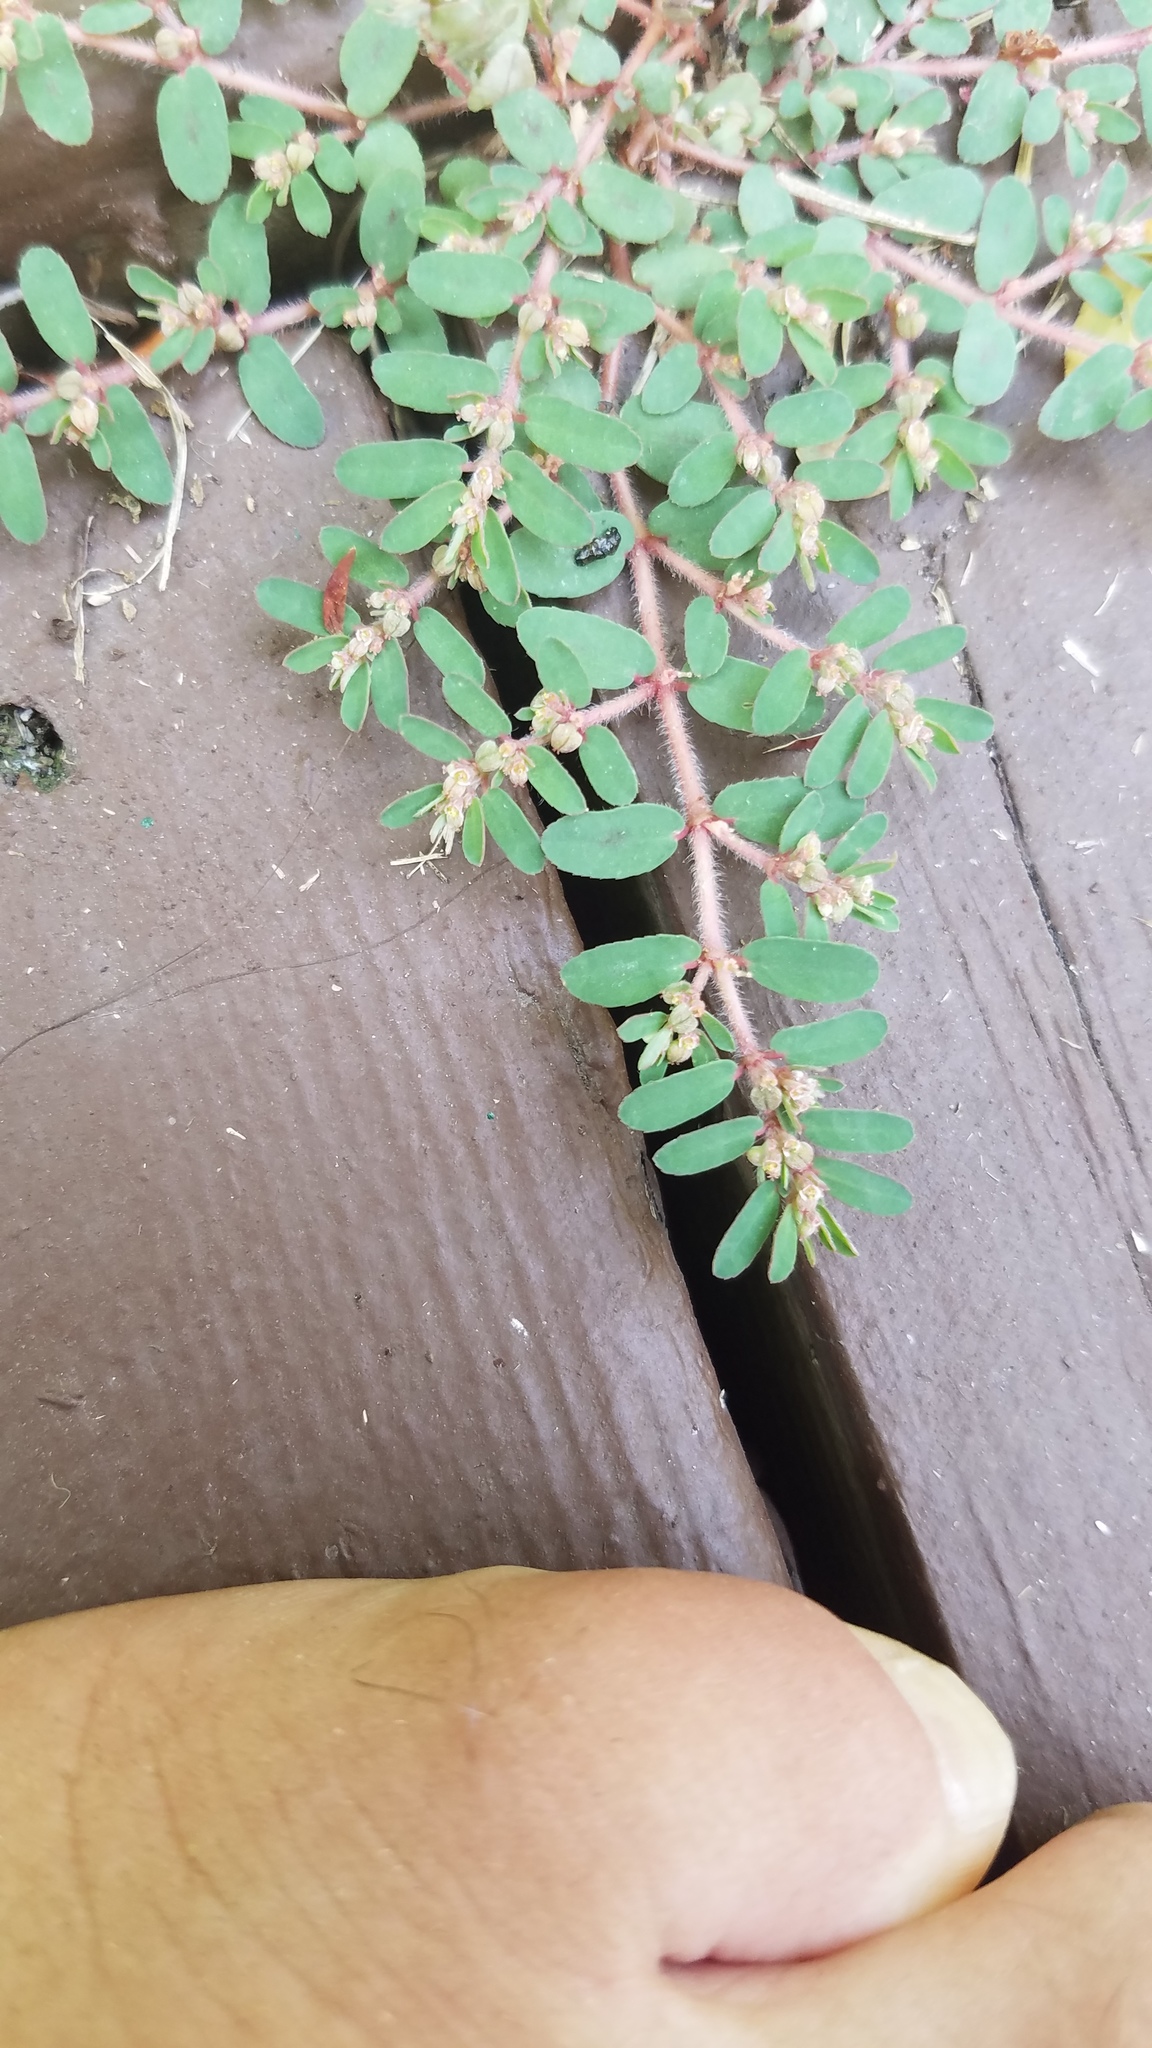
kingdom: Plantae
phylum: Tracheophyta
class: Magnoliopsida
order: Malpighiales
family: Euphorbiaceae
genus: Euphorbia
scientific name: Euphorbia maculata
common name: Spotted spurge
